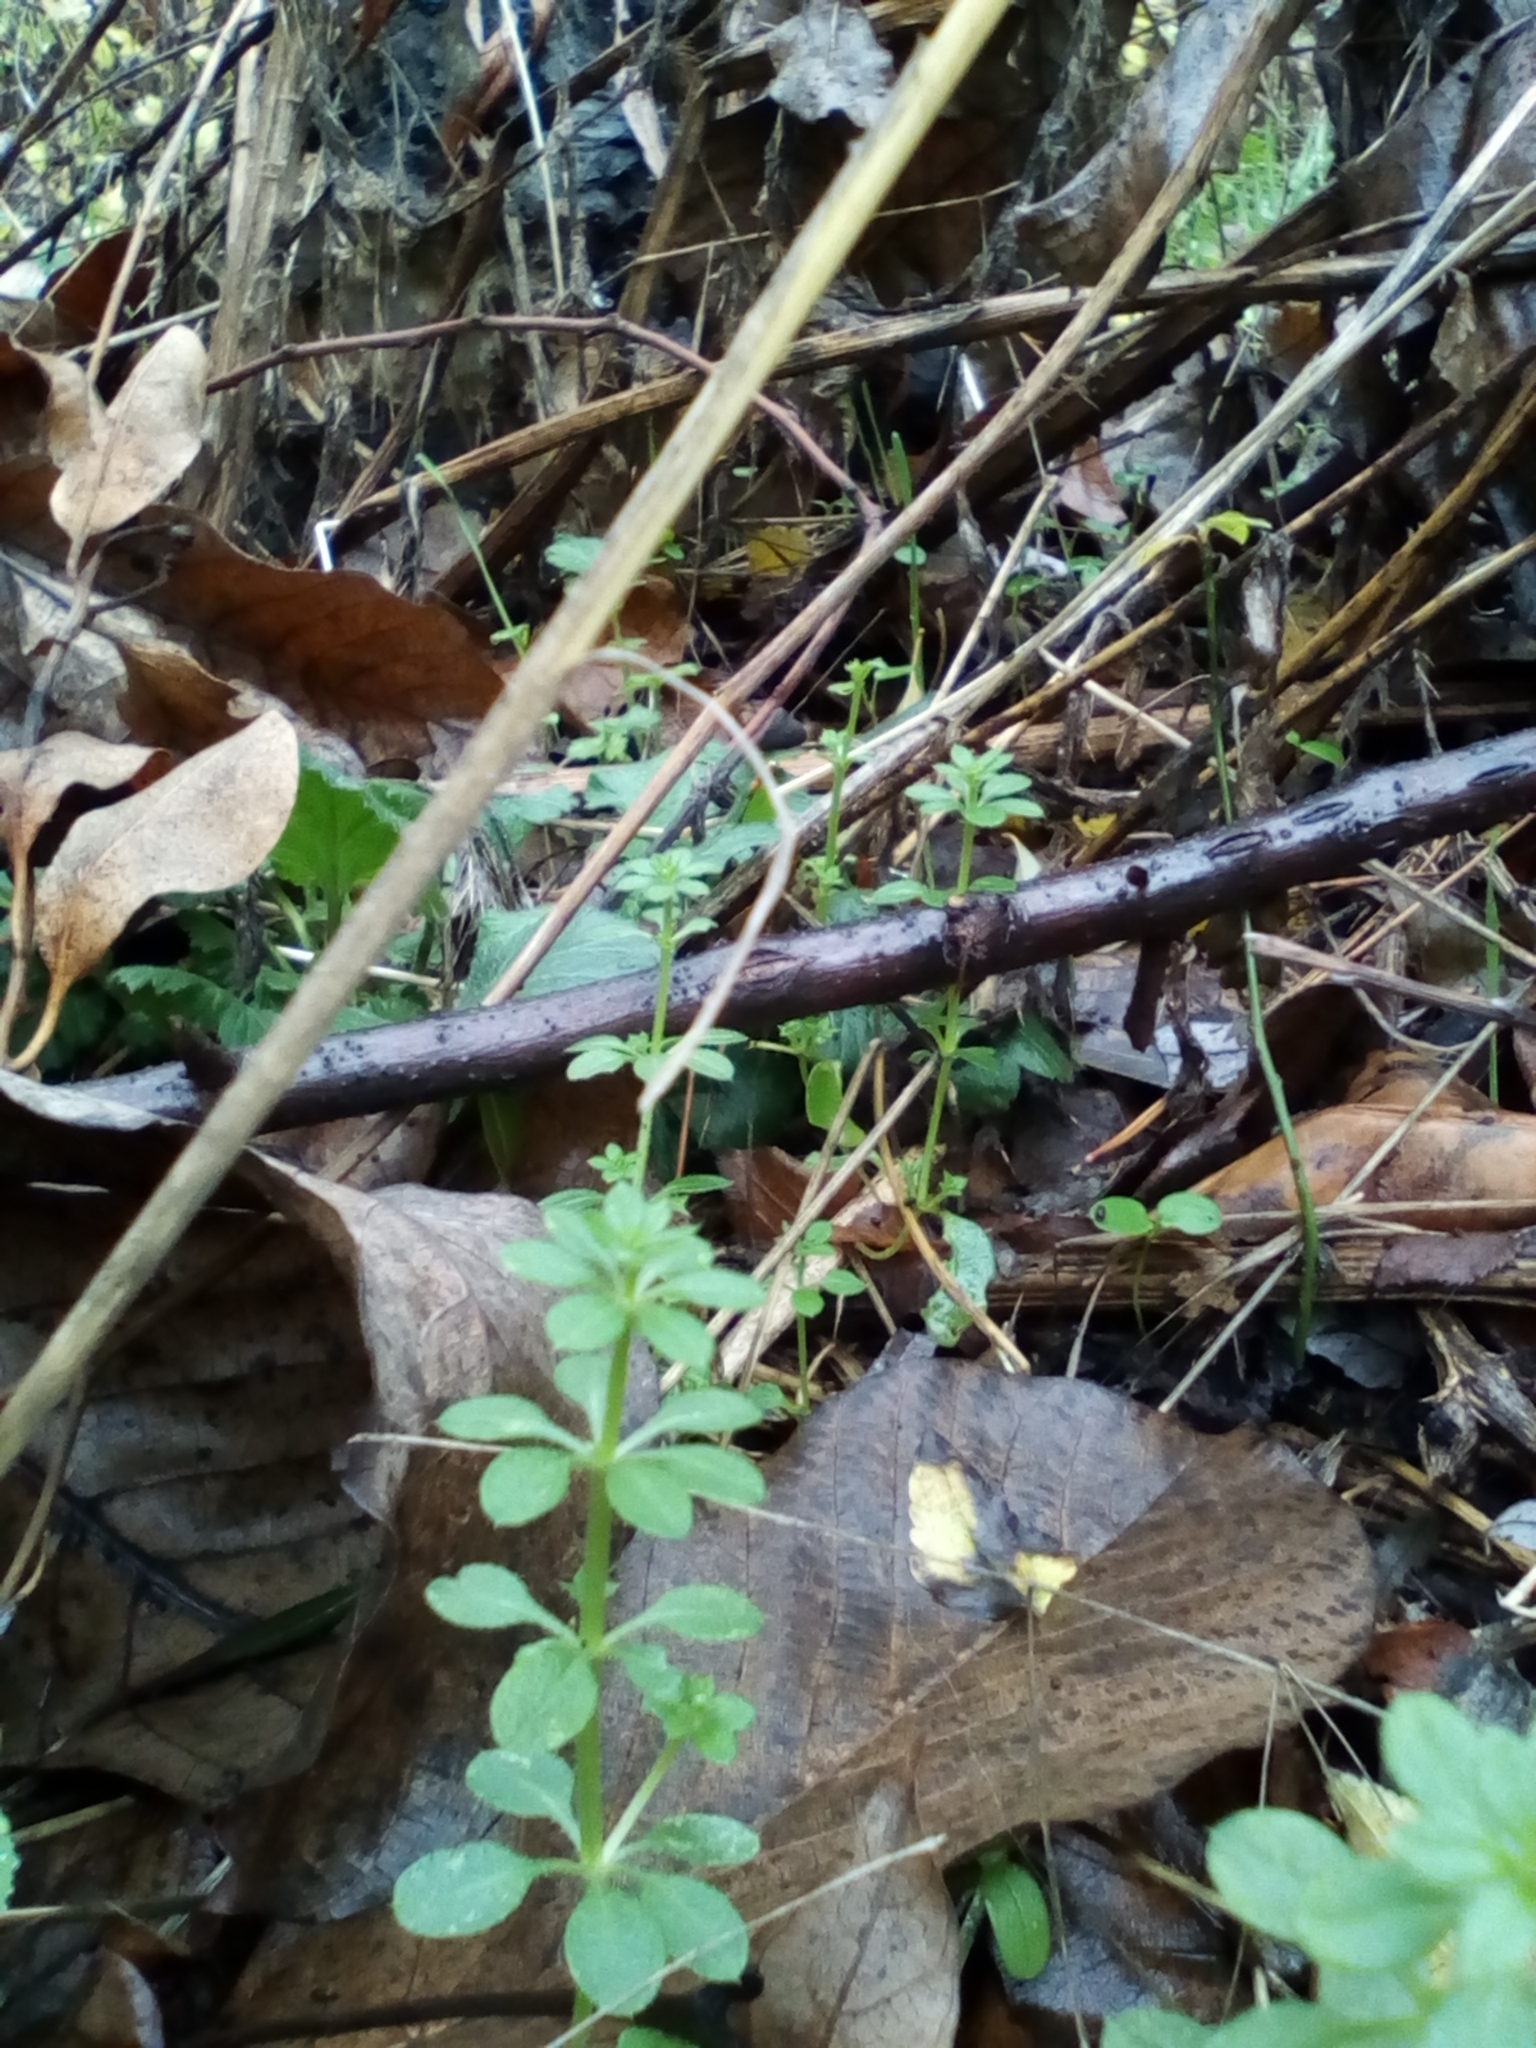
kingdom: Plantae
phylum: Tracheophyta
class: Magnoliopsida
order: Gentianales
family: Rubiaceae
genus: Galium
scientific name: Galium aparine
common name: Cleavers
